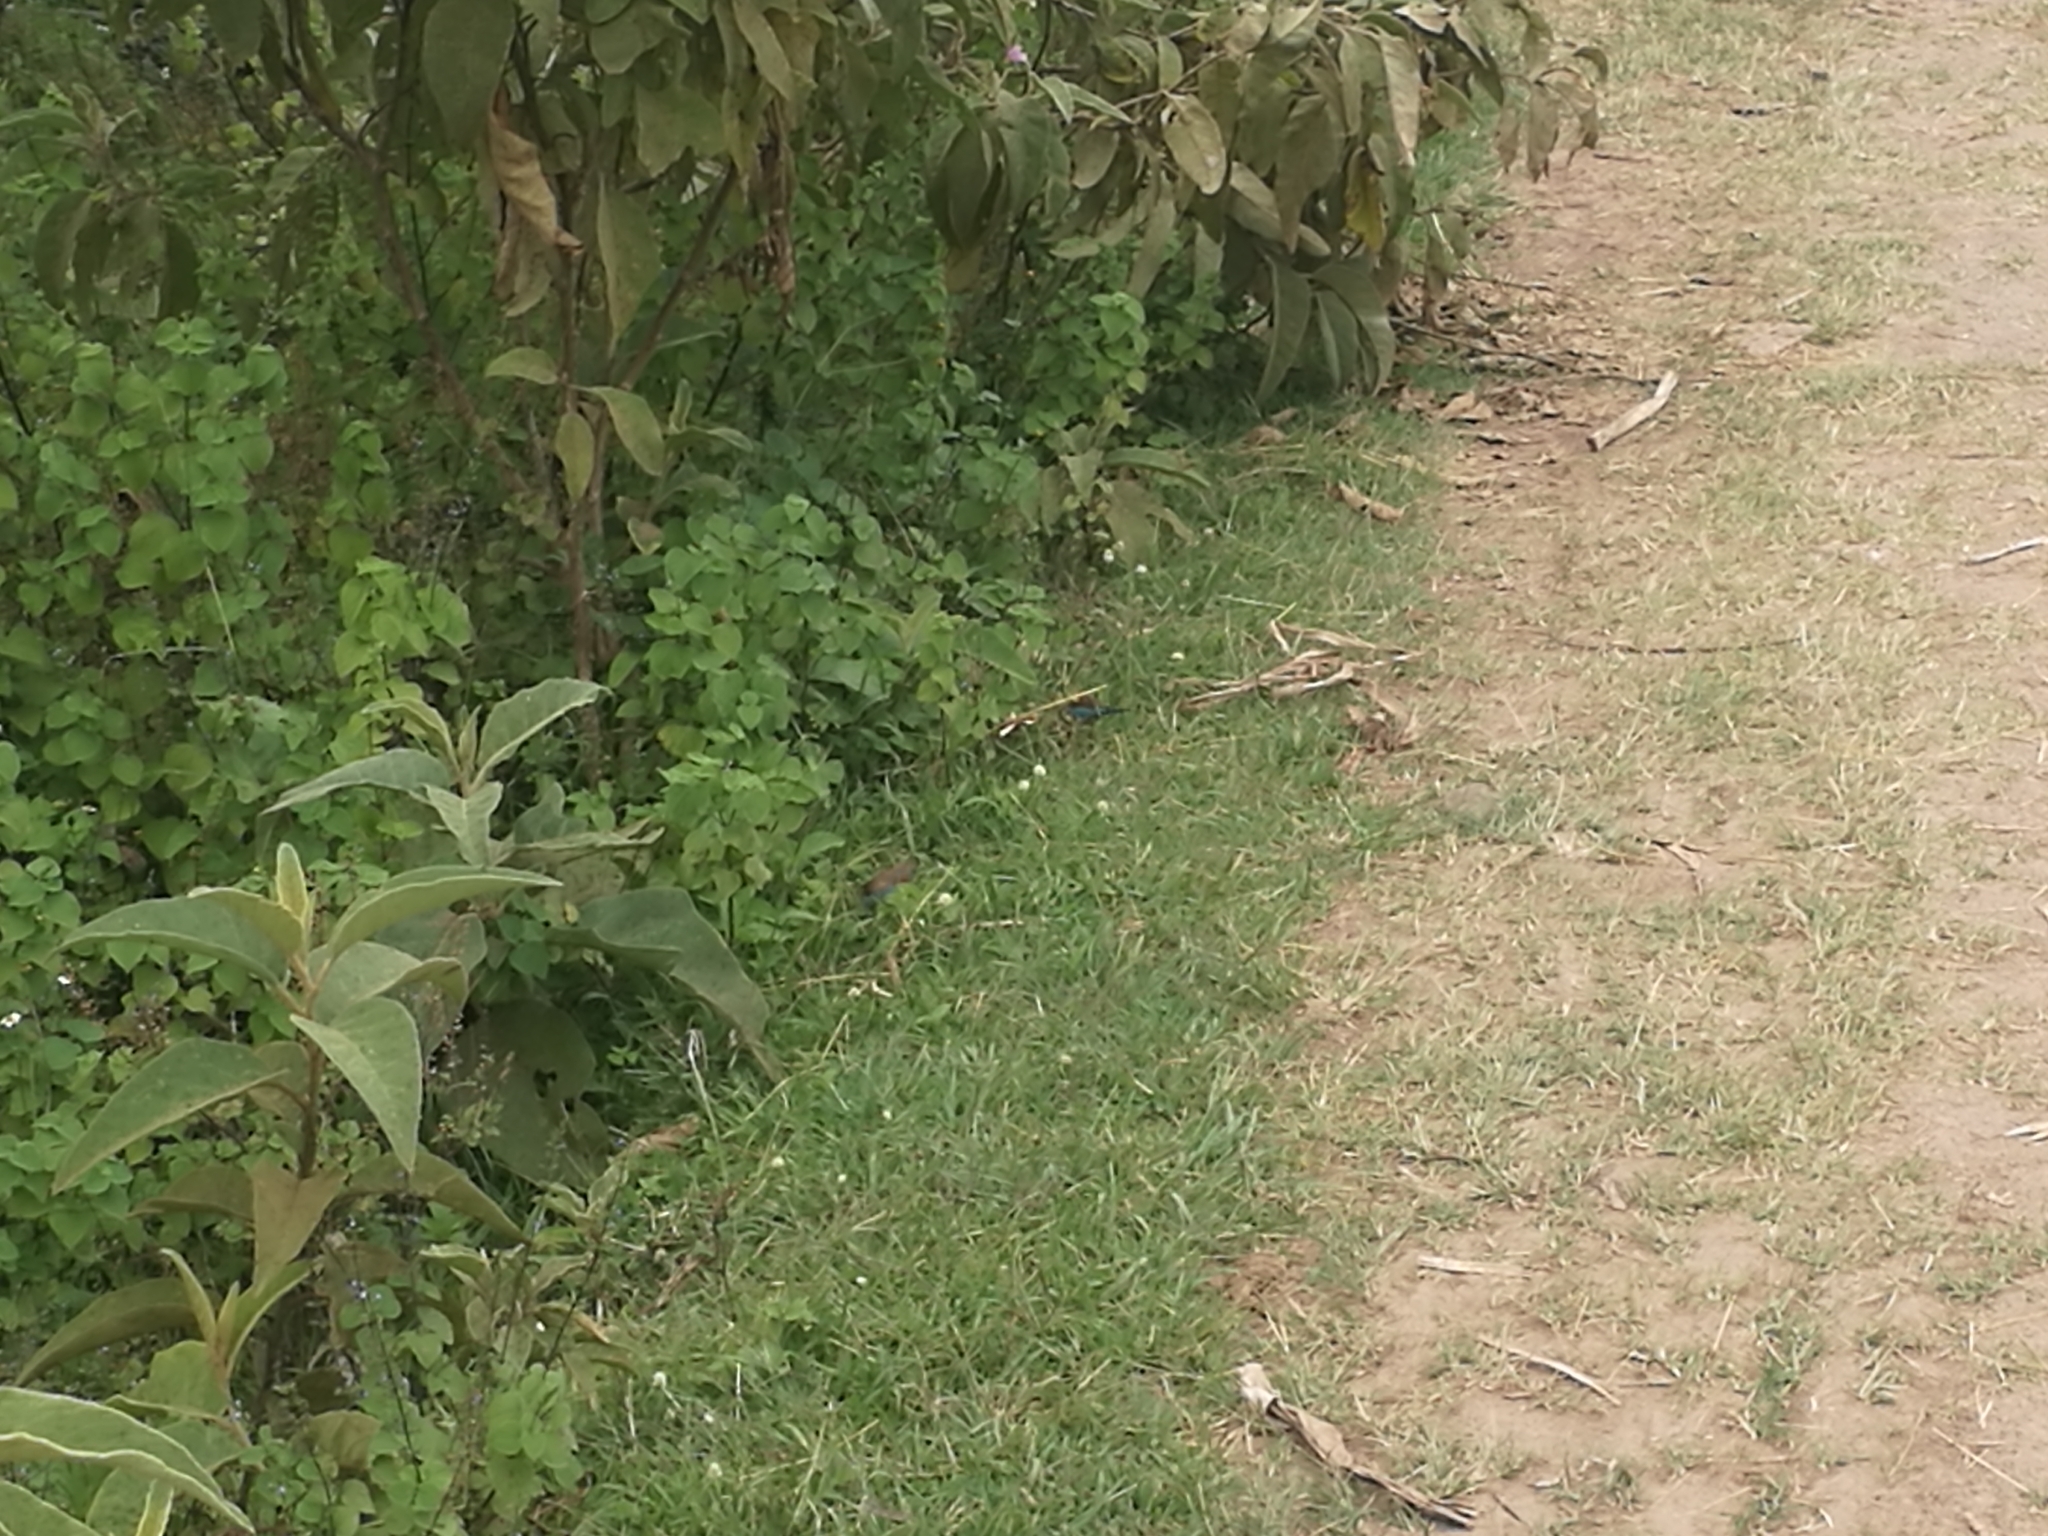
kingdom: Animalia
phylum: Chordata
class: Aves
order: Passeriformes
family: Estrildidae
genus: Uraeginthus
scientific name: Uraeginthus bengalus
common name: Red-cheeked cordon-bleu
